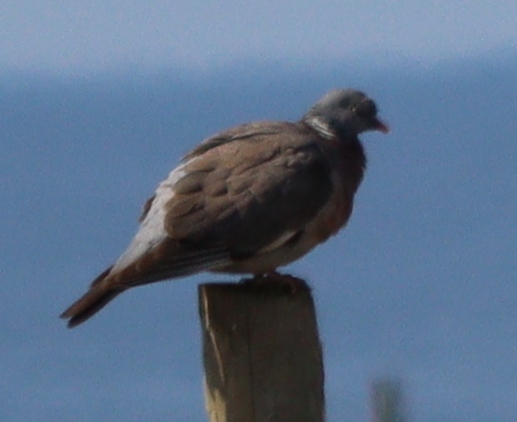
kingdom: Animalia
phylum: Chordata
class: Aves
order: Columbiformes
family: Columbidae
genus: Columba
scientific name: Columba palumbus
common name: Common wood pigeon
